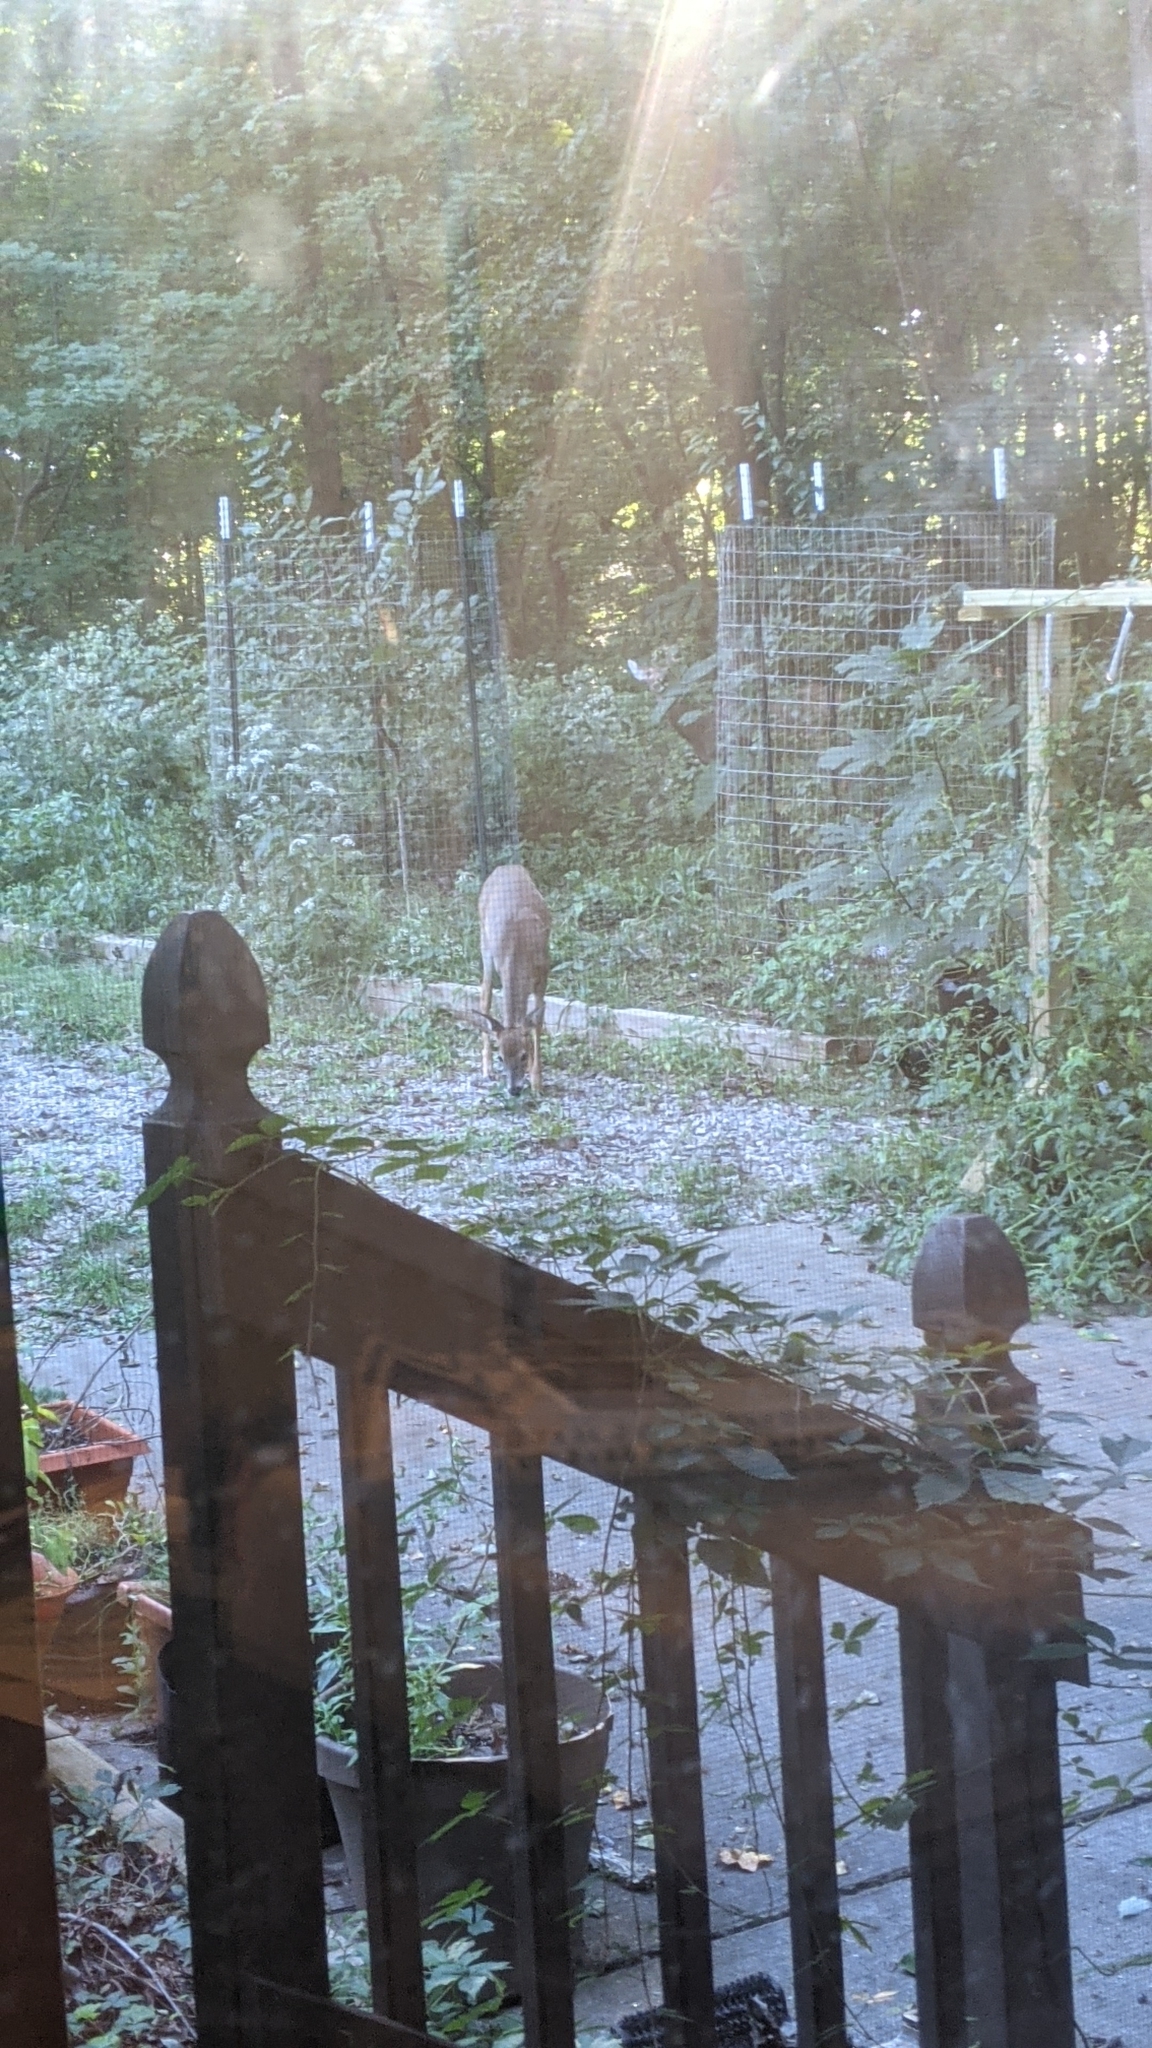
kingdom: Animalia
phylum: Chordata
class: Mammalia
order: Artiodactyla
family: Cervidae
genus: Odocoileus
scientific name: Odocoileus virginianus
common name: White-tailed deer
